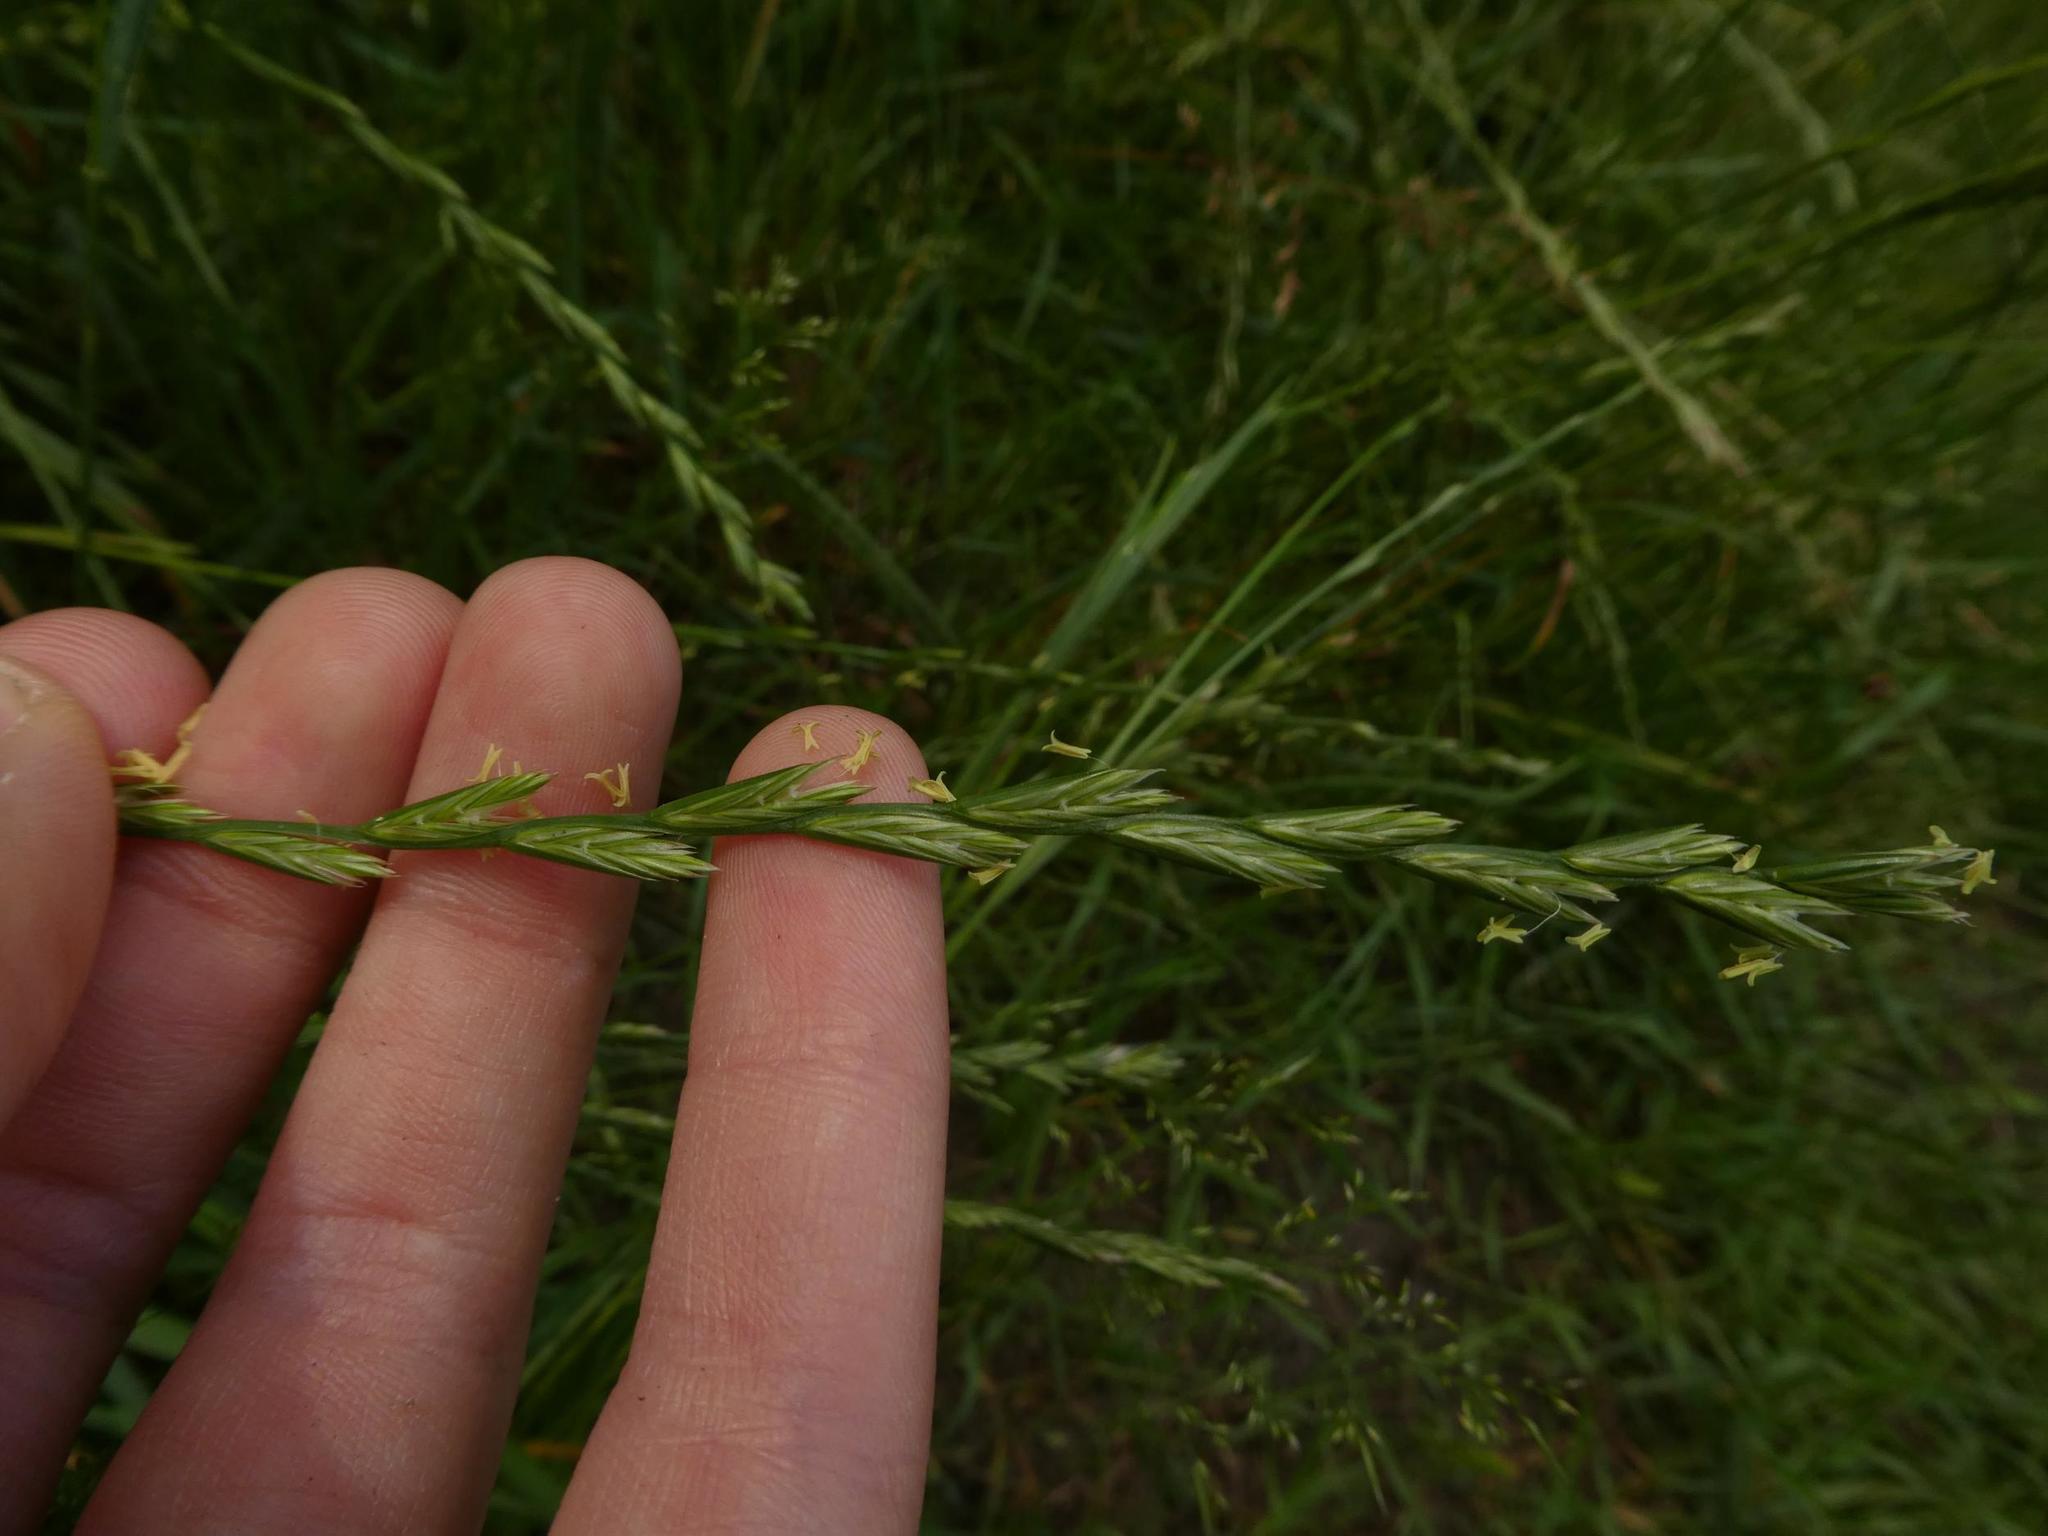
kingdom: Plantae
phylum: Tracheophyta
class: Liliopsida
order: Poales
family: Poaceae
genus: Lolium
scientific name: Lolium perenne
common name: Perennial ryegrass
